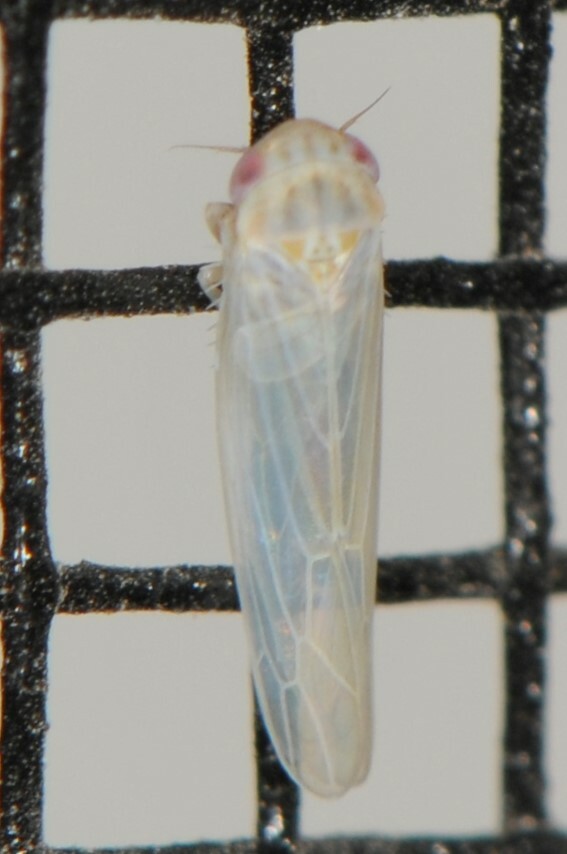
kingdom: Animalia
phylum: Arthropoda
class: Insecta
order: Hemiptera
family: Cicadellidae
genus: Balclutha
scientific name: Balclutha
